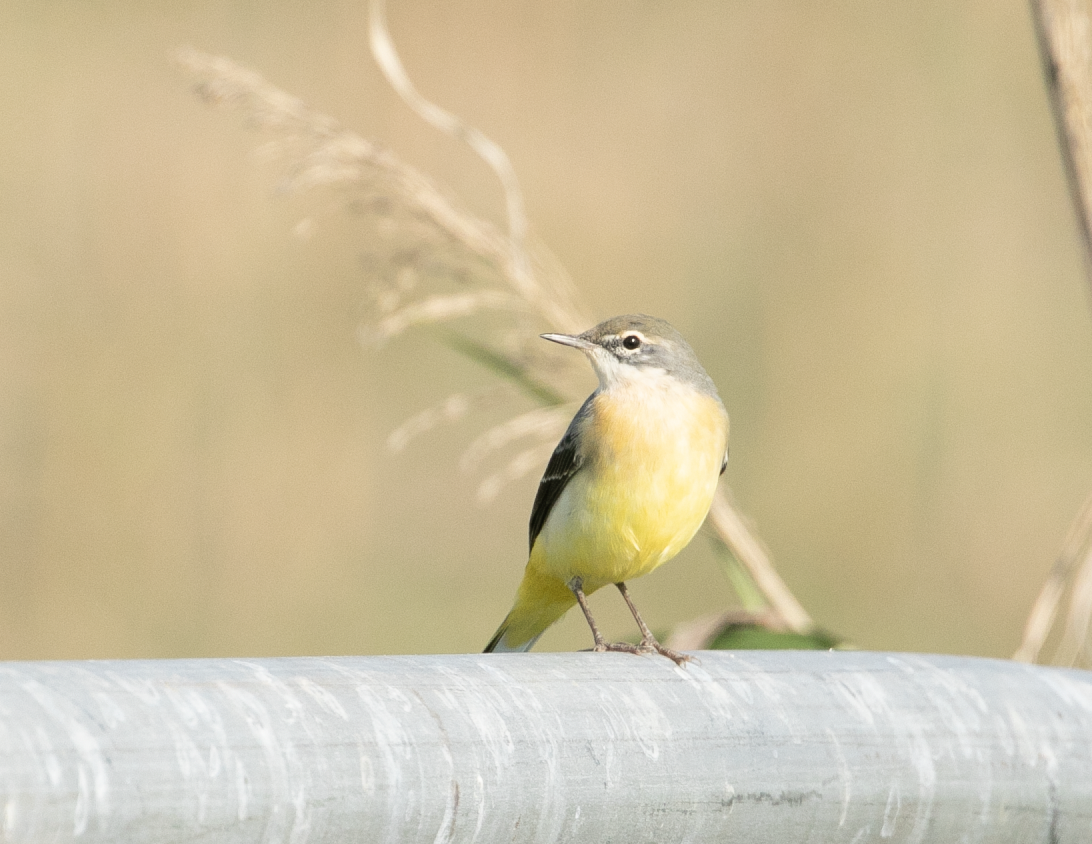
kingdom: Animalia
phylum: Chordata
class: Aves
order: Passeriformes
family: Motacillidae
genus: Motacilla
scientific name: Motacilla cinerea
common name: Grey wagtail
